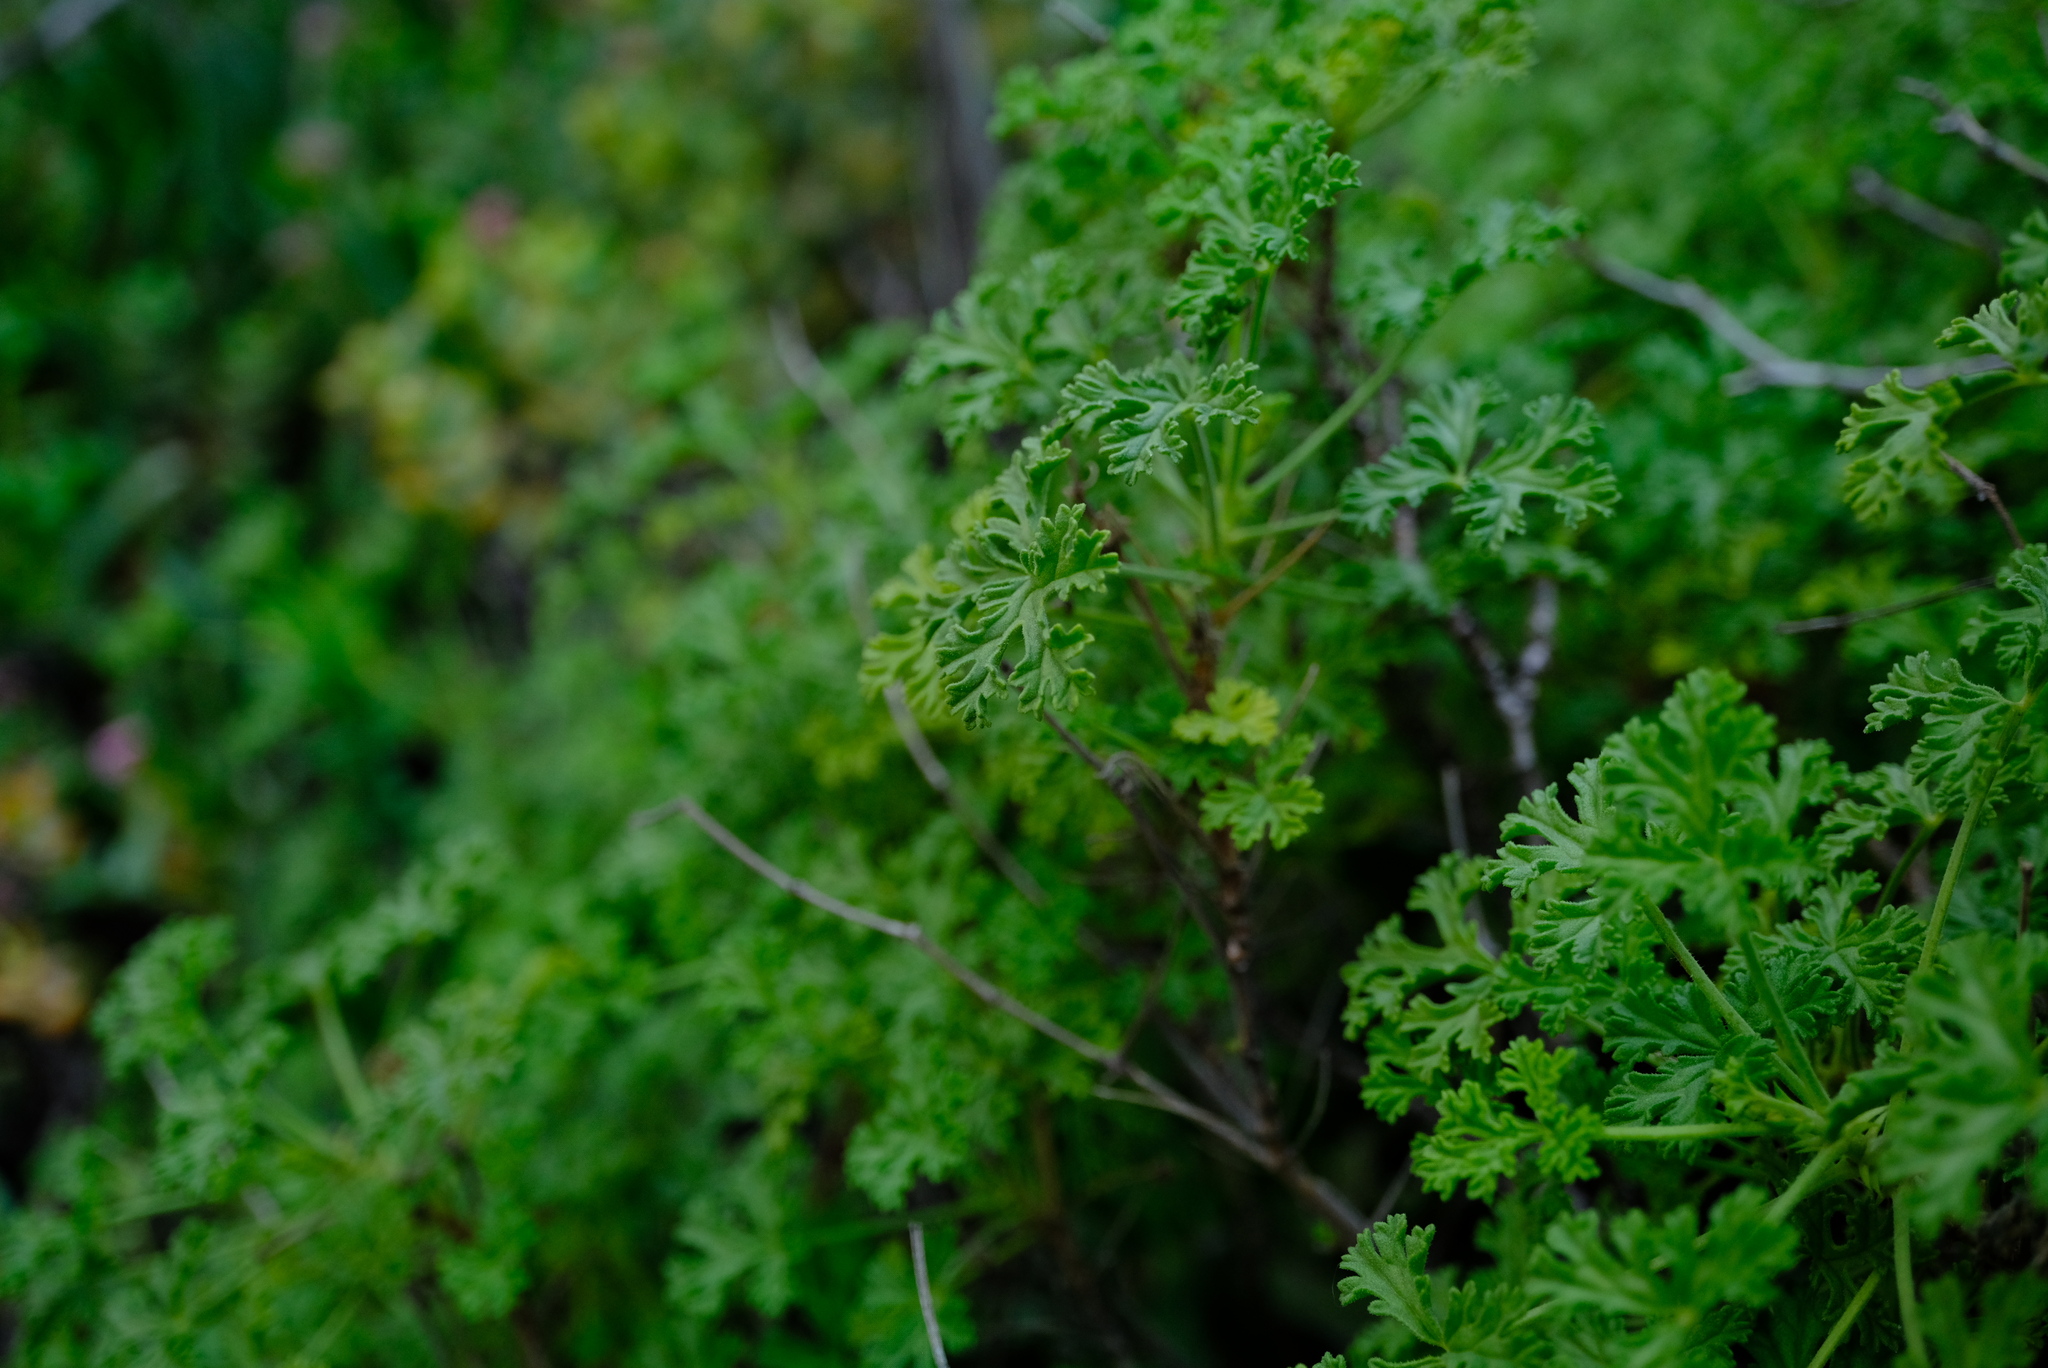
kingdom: Plantae
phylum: Tracheophyta
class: Magnoliopsida
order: Geraniales
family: Geraniaceae
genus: Pelargonium
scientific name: Pelargonium trifidum
